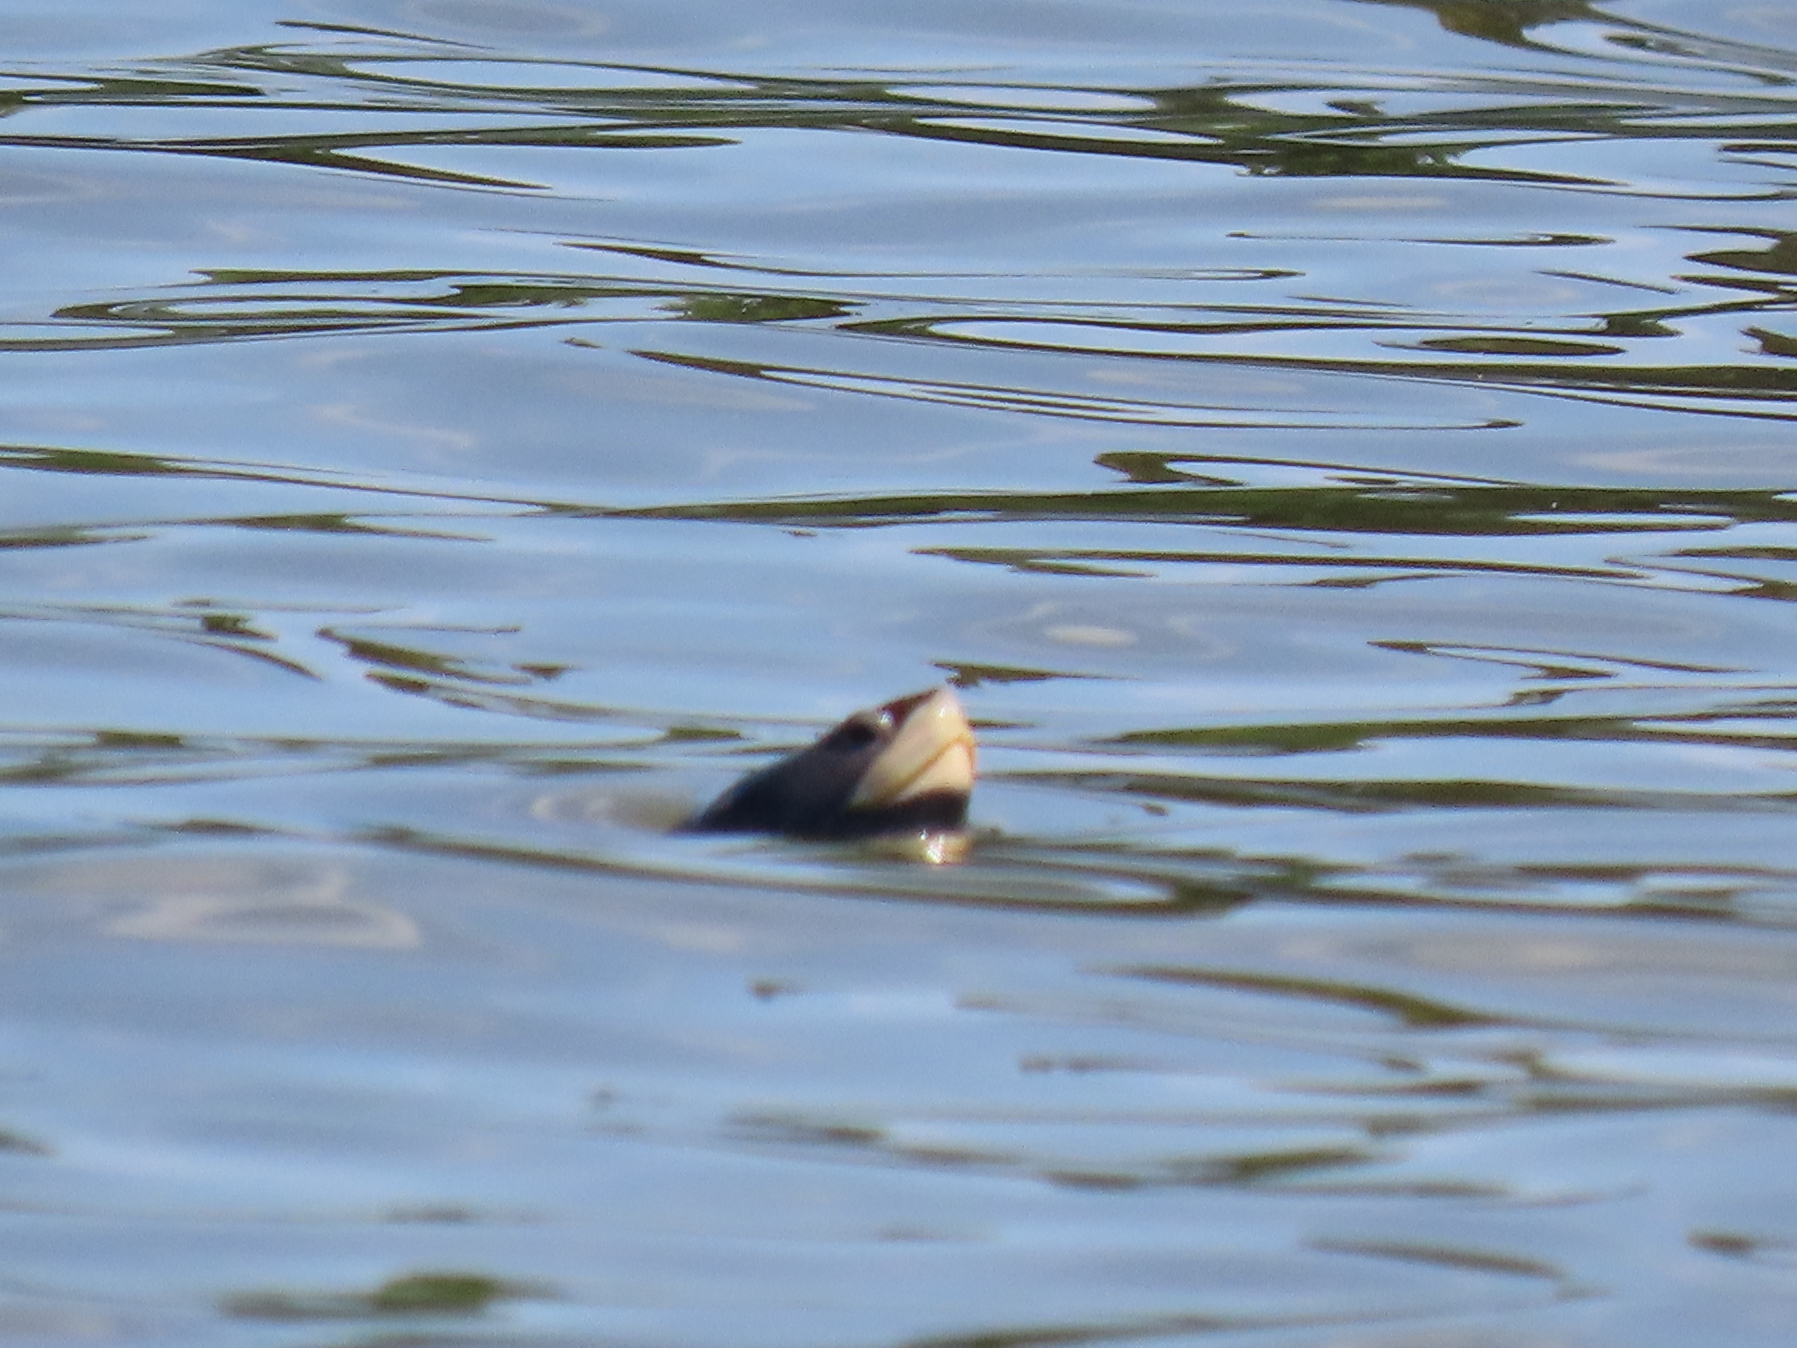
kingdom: Animalia
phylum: Chordata
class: Testudines
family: Emydidae
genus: Malaclemys
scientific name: Malaclemys terrapin
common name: Diamondback terrapin
